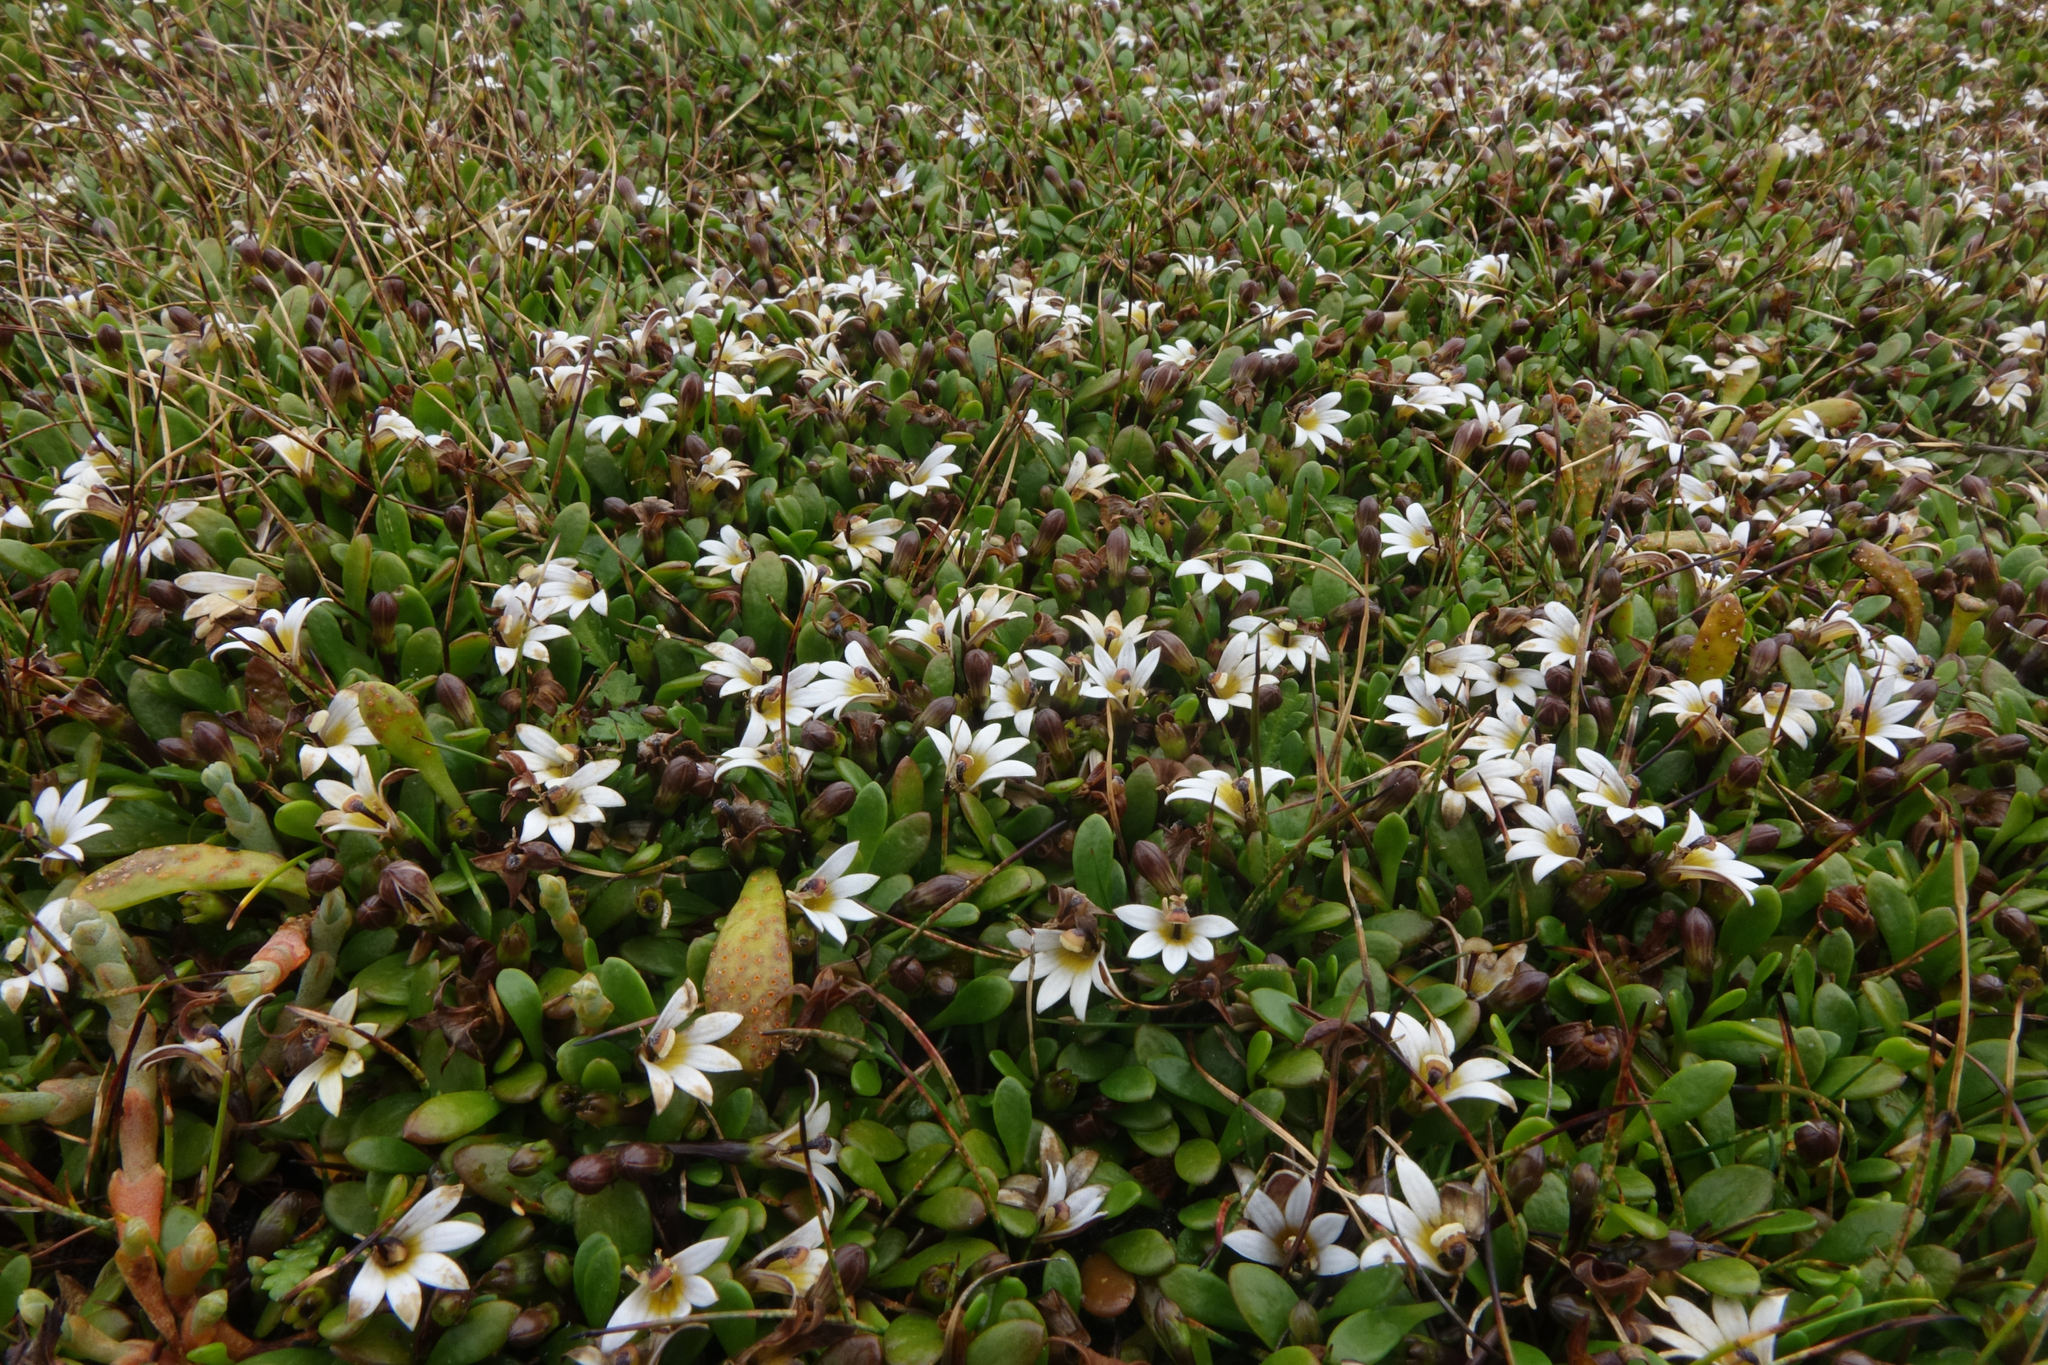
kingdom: Plantae
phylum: Tracheophyta
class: Magnoliopsida
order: Asterales
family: Goodeniaceae
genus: Goodenia
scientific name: Goodenia radicans
